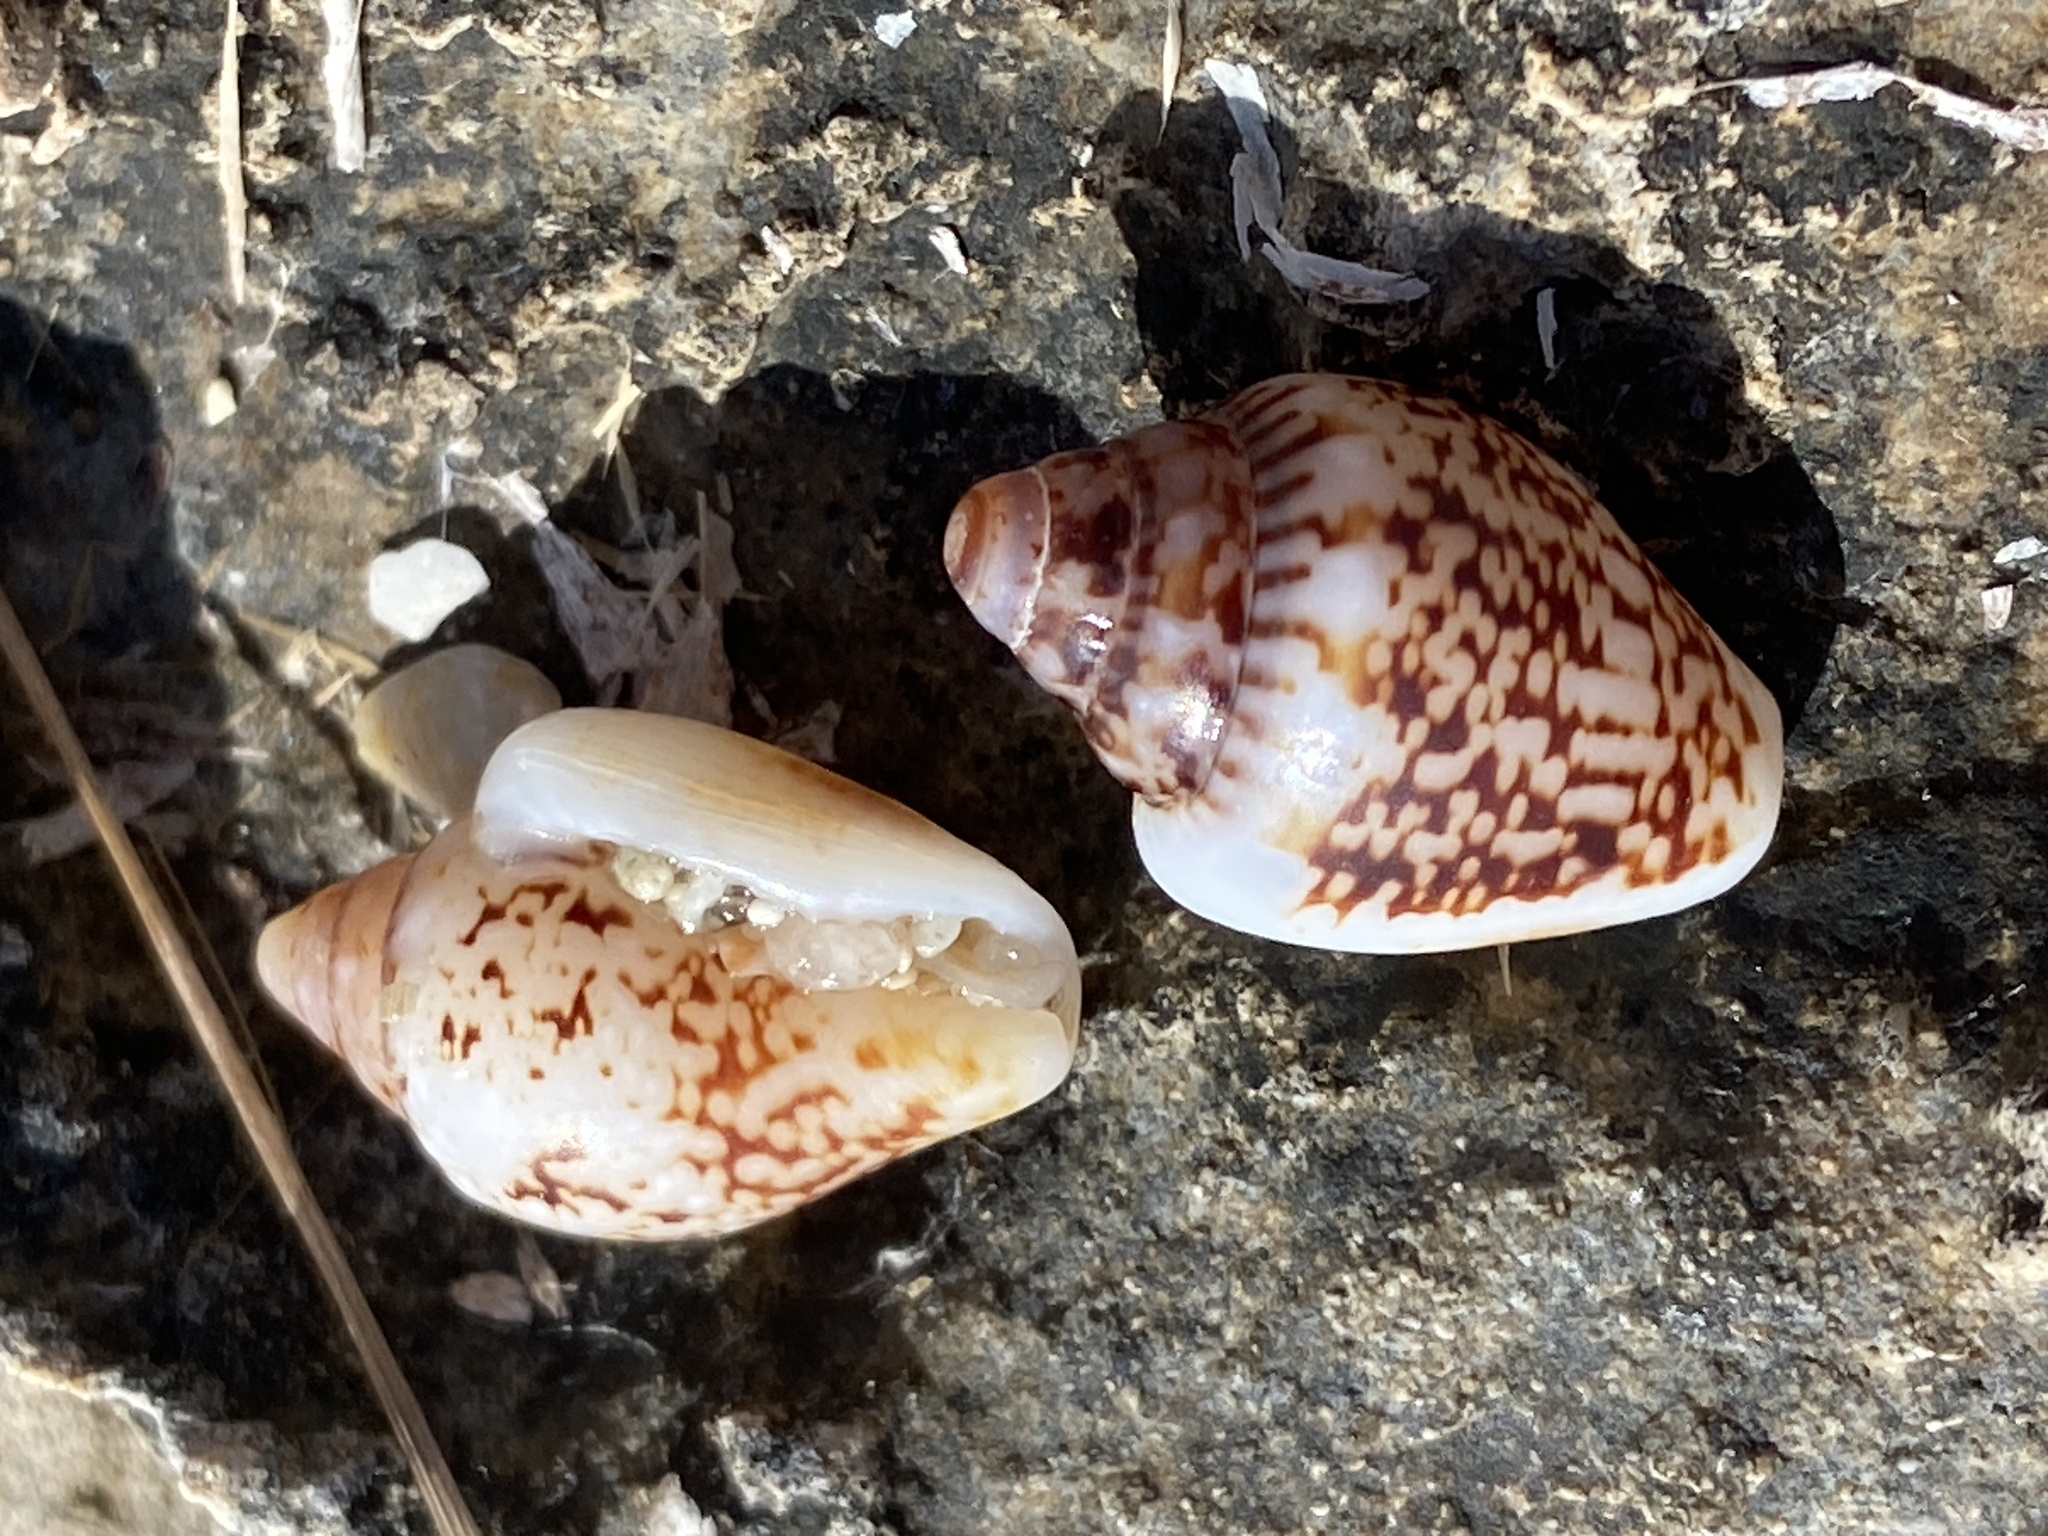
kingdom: Animalia
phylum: Mollusca
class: Gastropoda
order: Neogastropoda
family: Columbellidae
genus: Columbella
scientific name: Columbella rustica
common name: Rustic dove shell
